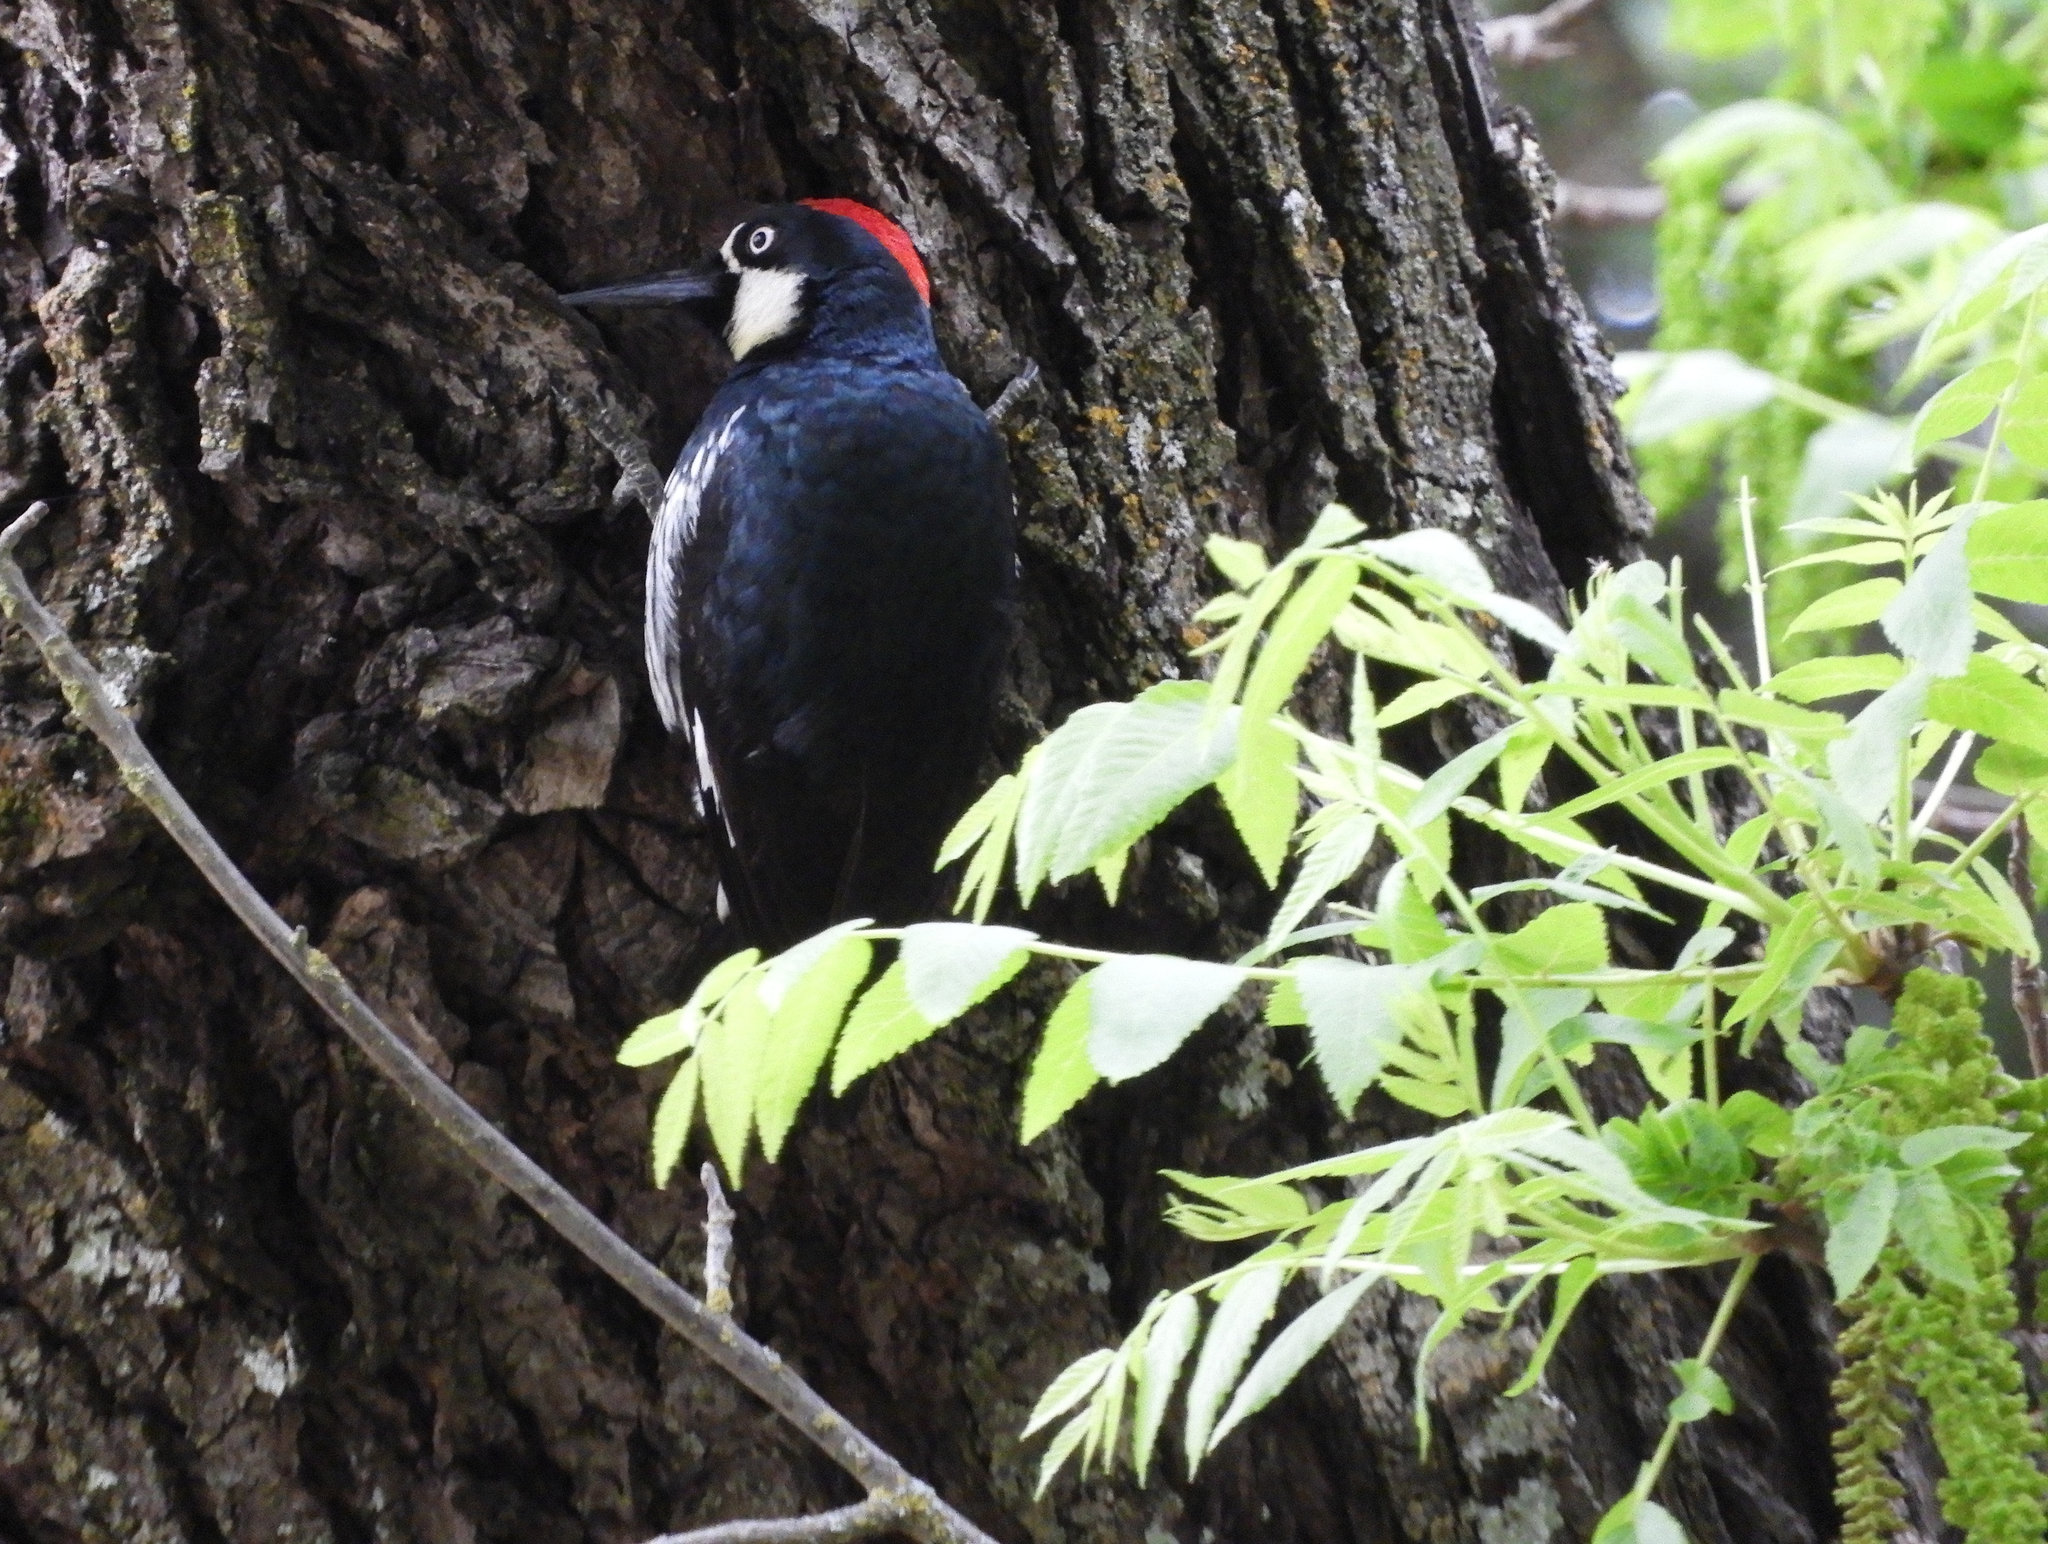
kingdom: Animalia
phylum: Chordata
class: Aves
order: Piciformes
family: Picidae
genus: Melanerpes
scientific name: Melanerpes formicivorus
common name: Acorn woodpecker
